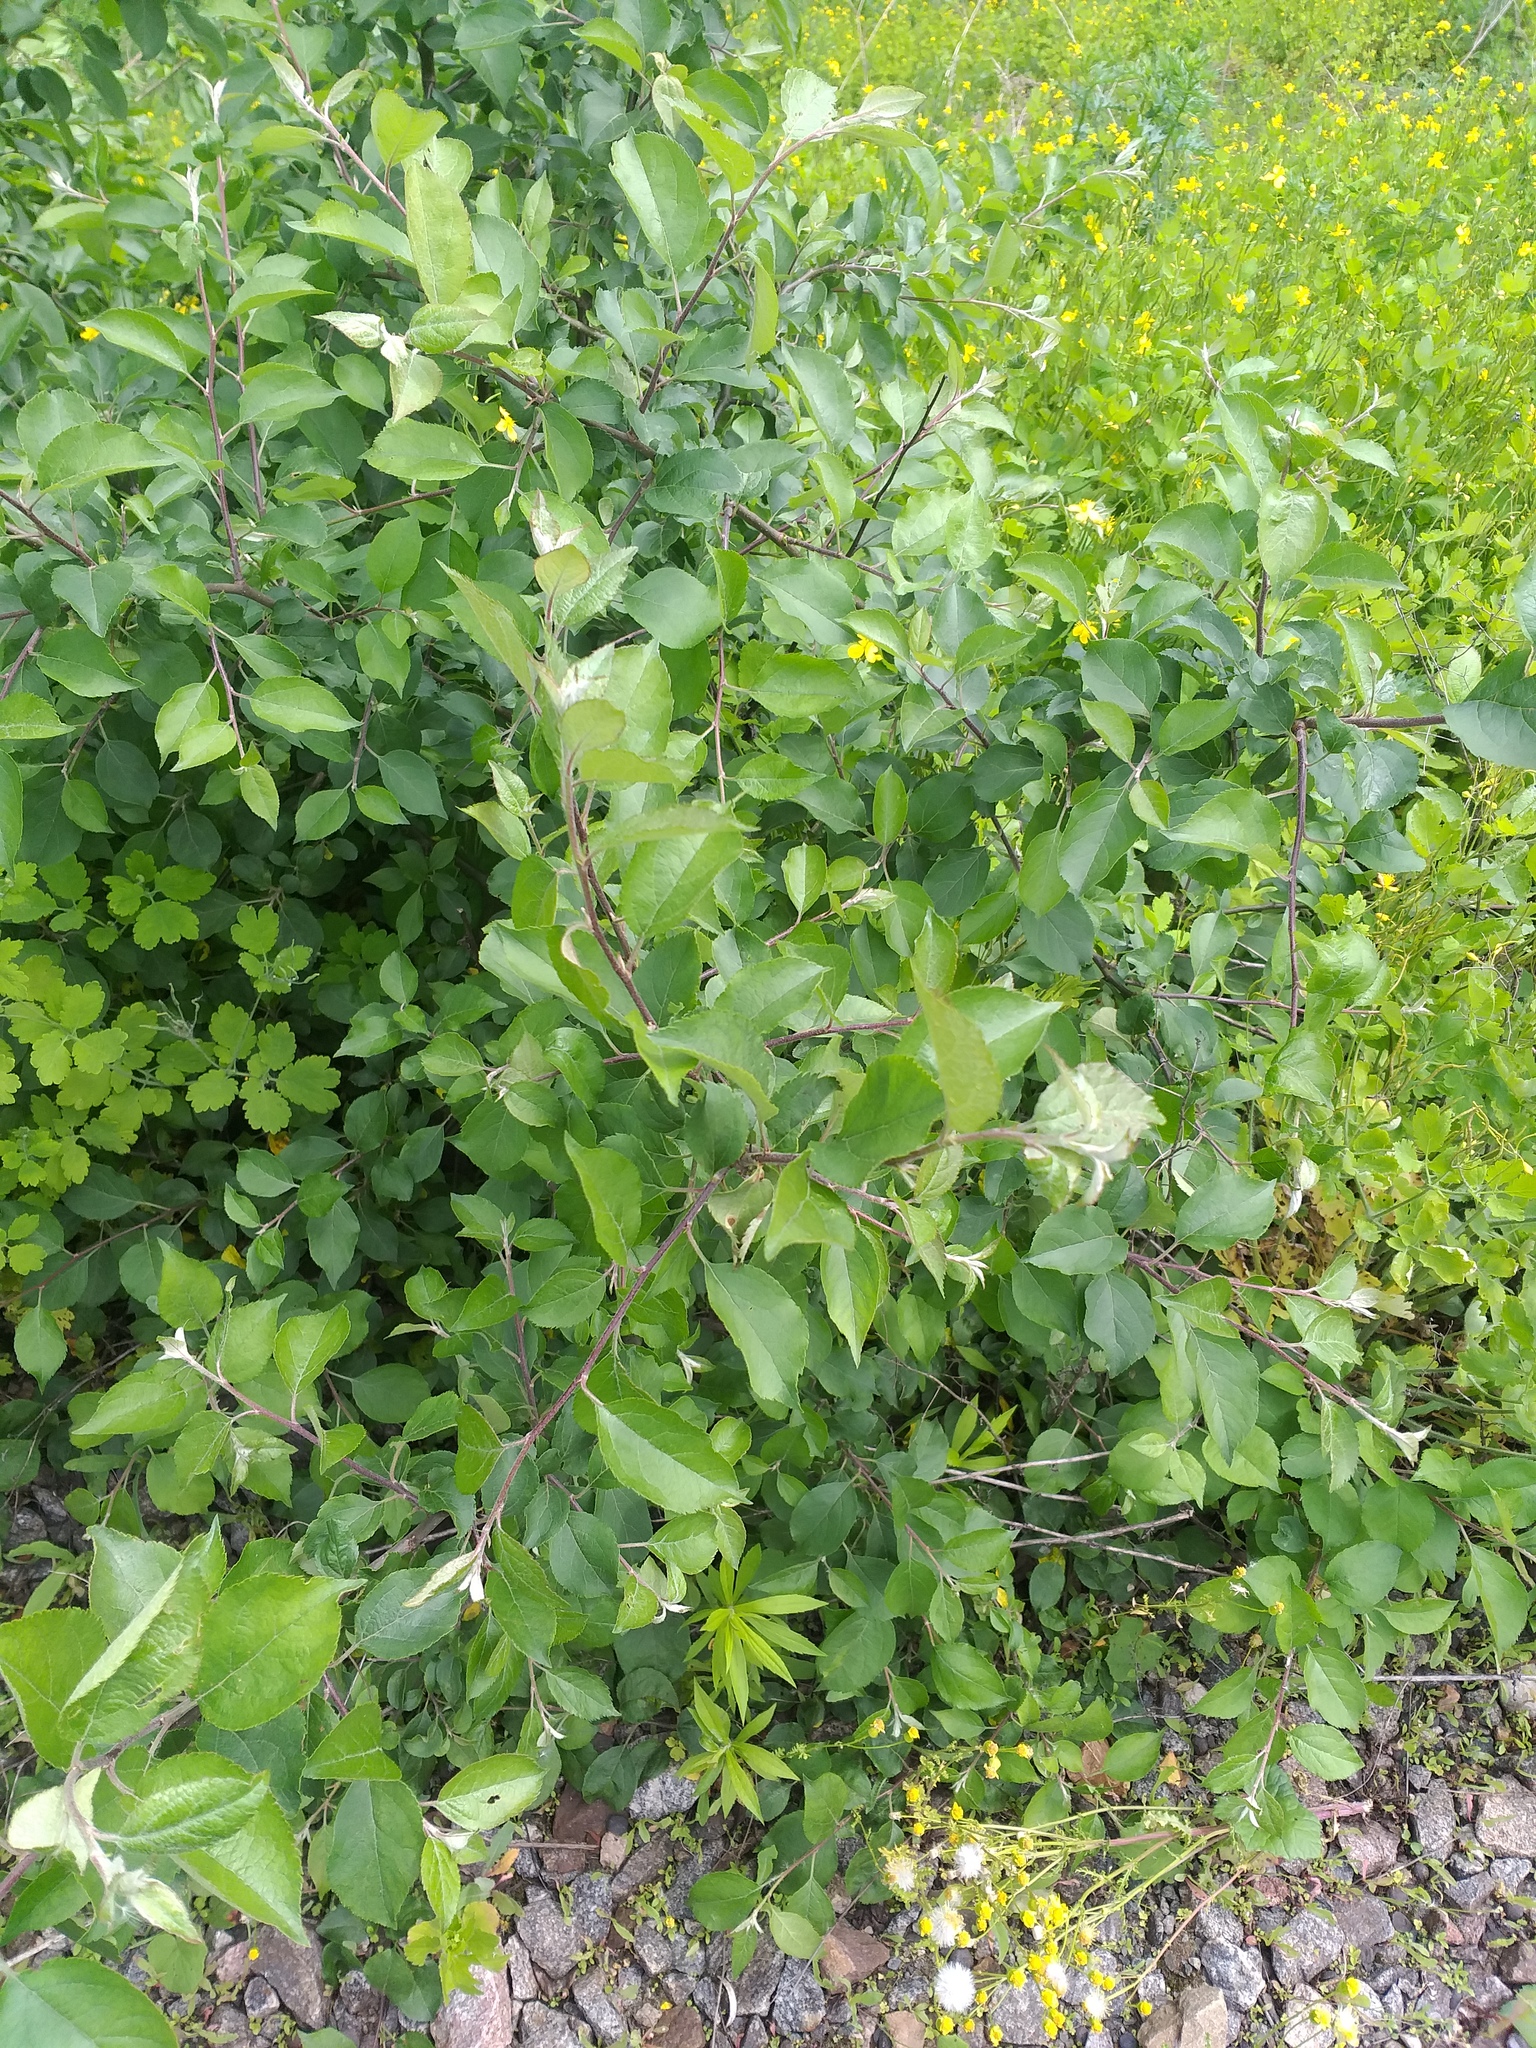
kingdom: Plantae
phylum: Tracheophyta
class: Magnoliopsida
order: Rosales
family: Rosaceae
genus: Malus
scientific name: Malus domestica
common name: Apple
